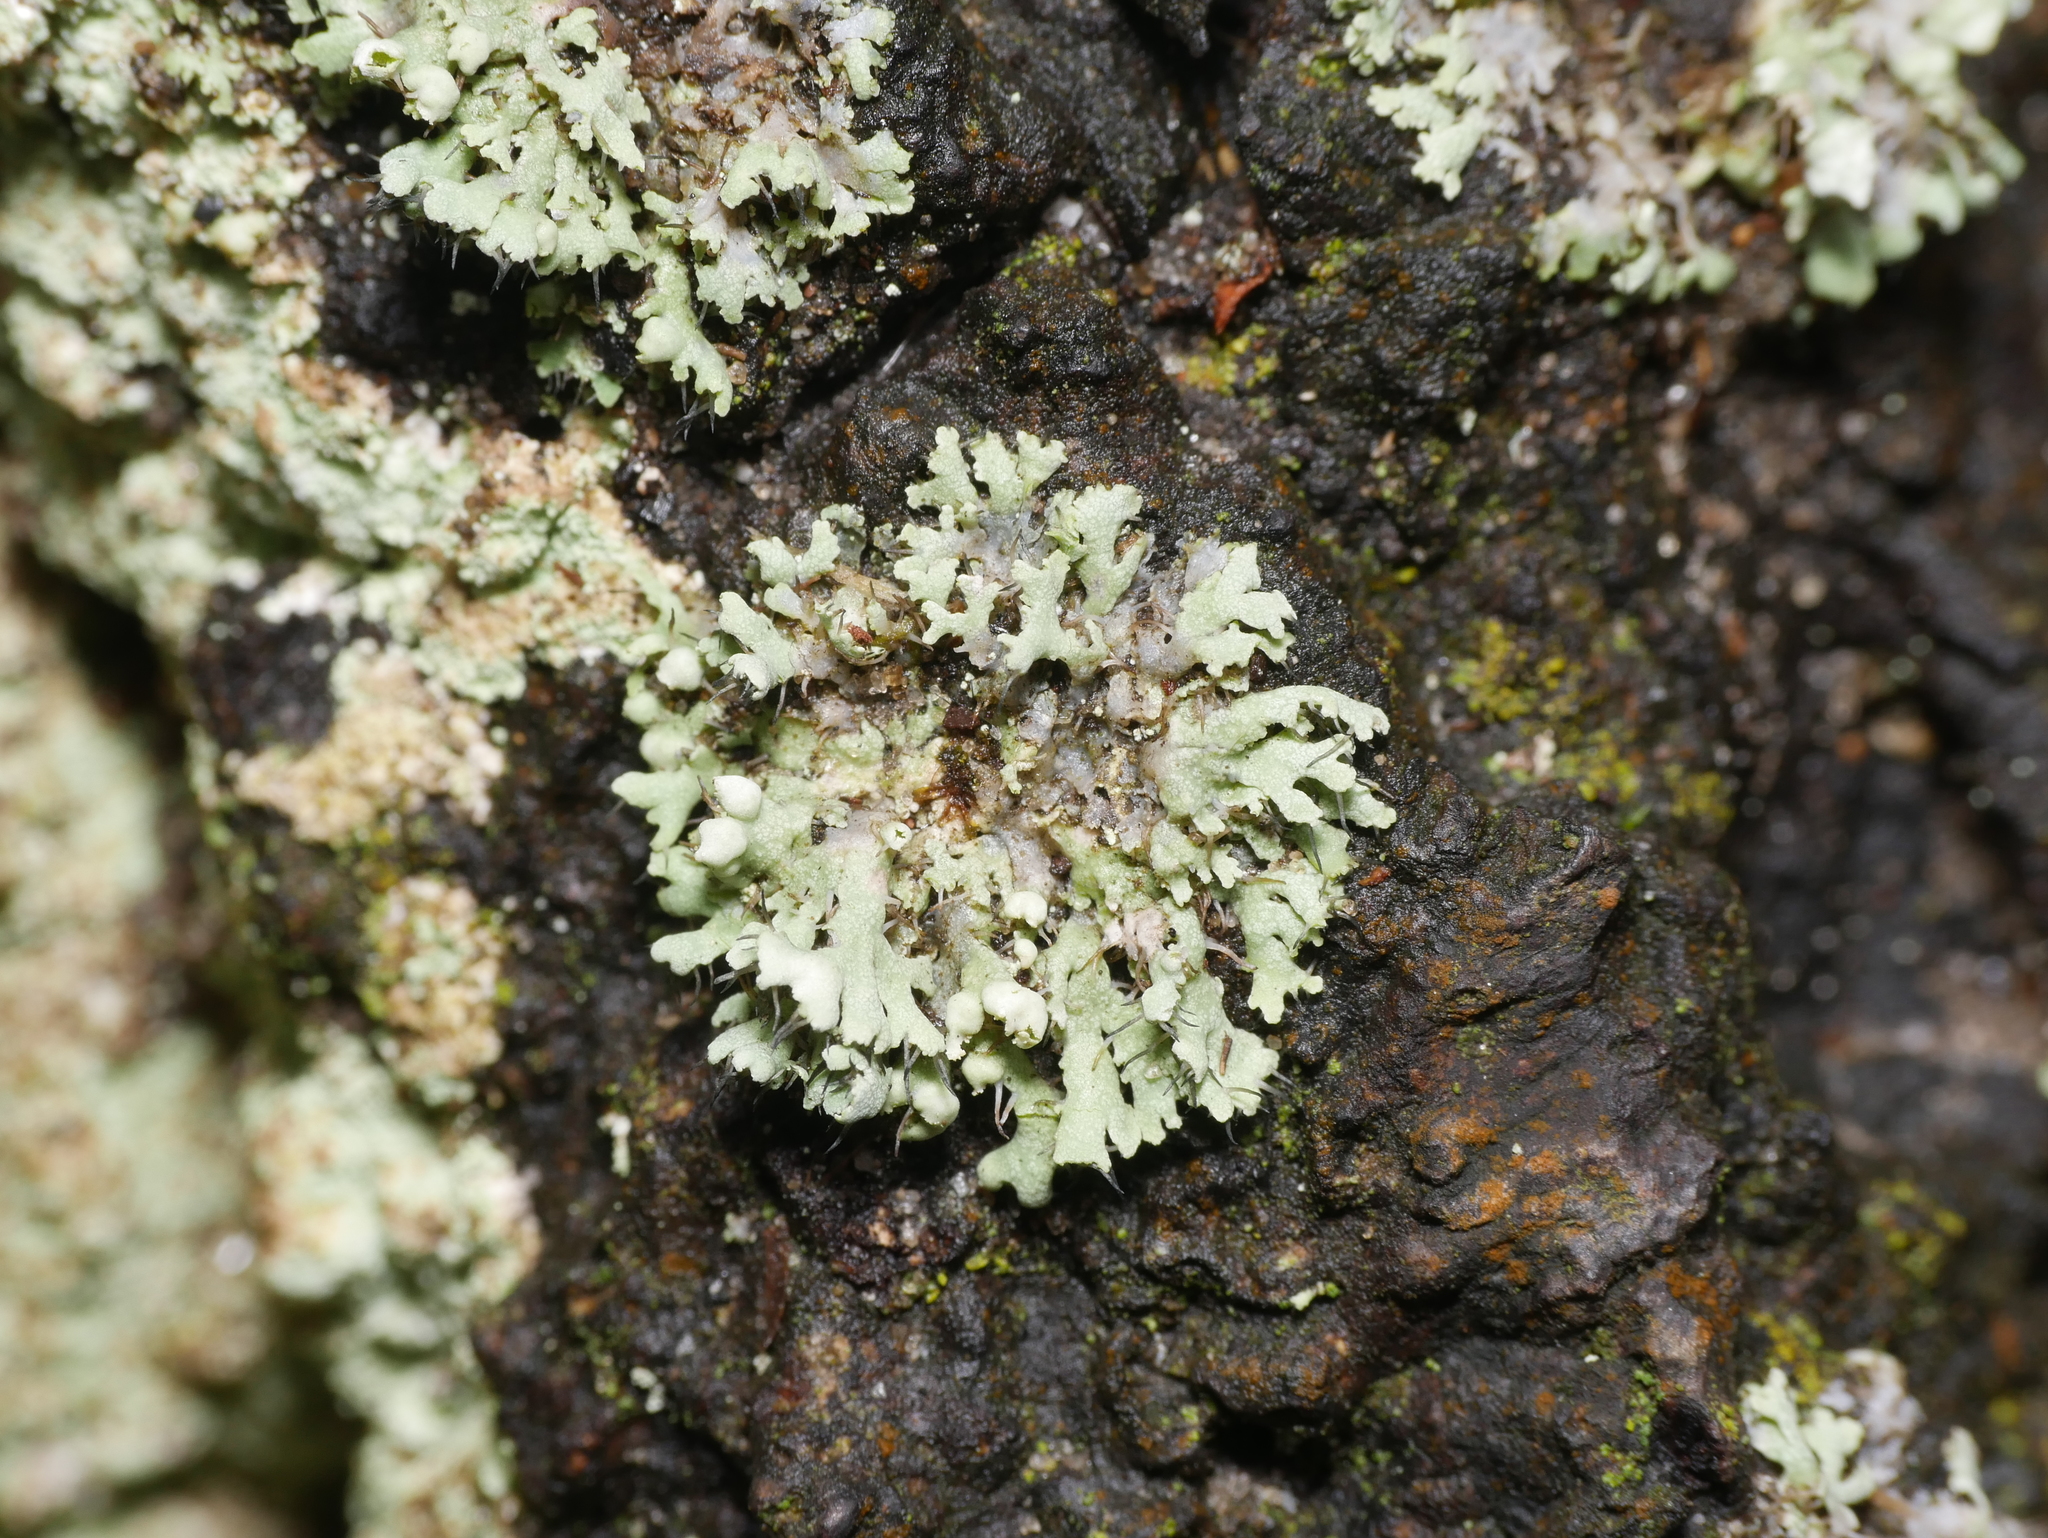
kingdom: Fungi
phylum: Ascomycota
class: Lecanoromycetes
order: Caliciales
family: Physciaceae
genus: Physcia
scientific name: Physcia adscendens
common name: Hooded rosette lichen
